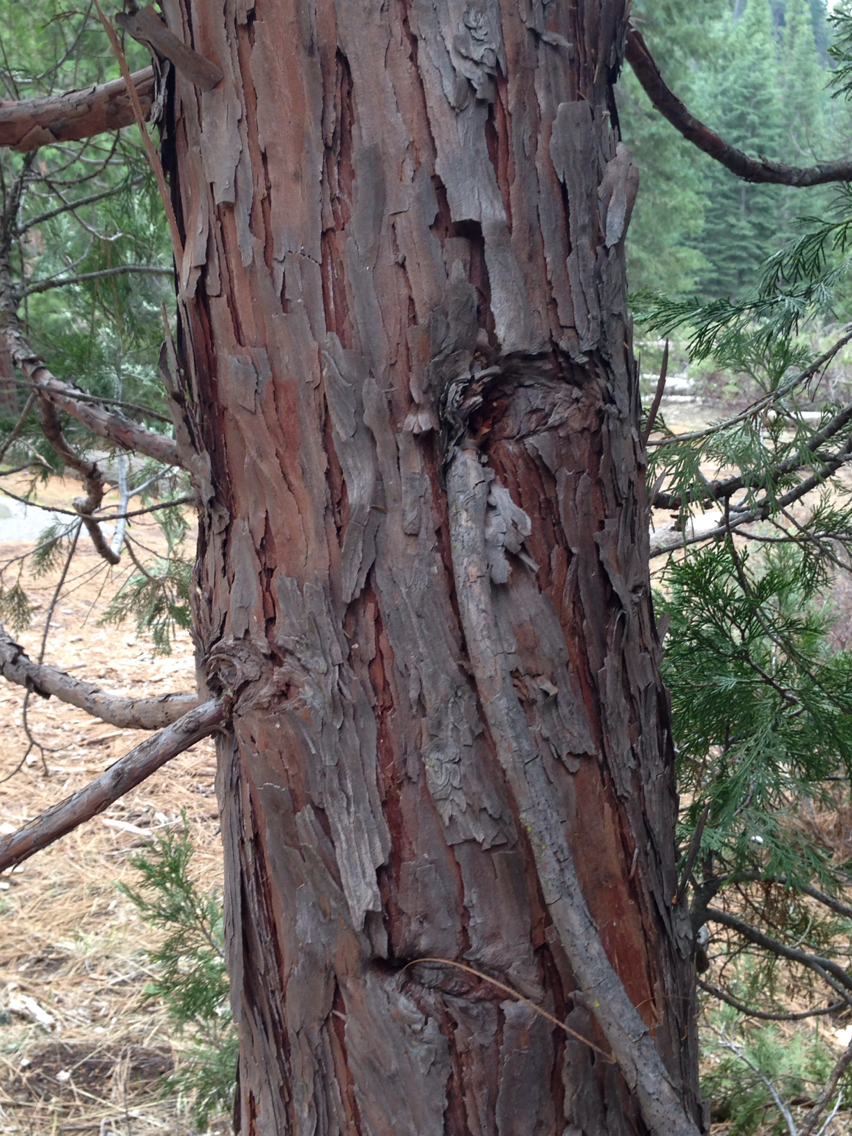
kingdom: Plantae
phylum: Tracheophyta
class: Pinopsida
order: Pinales
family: Cupressaceae
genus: Calocedrus
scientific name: Calocedrus decurrens
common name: Californian incense-cedar
